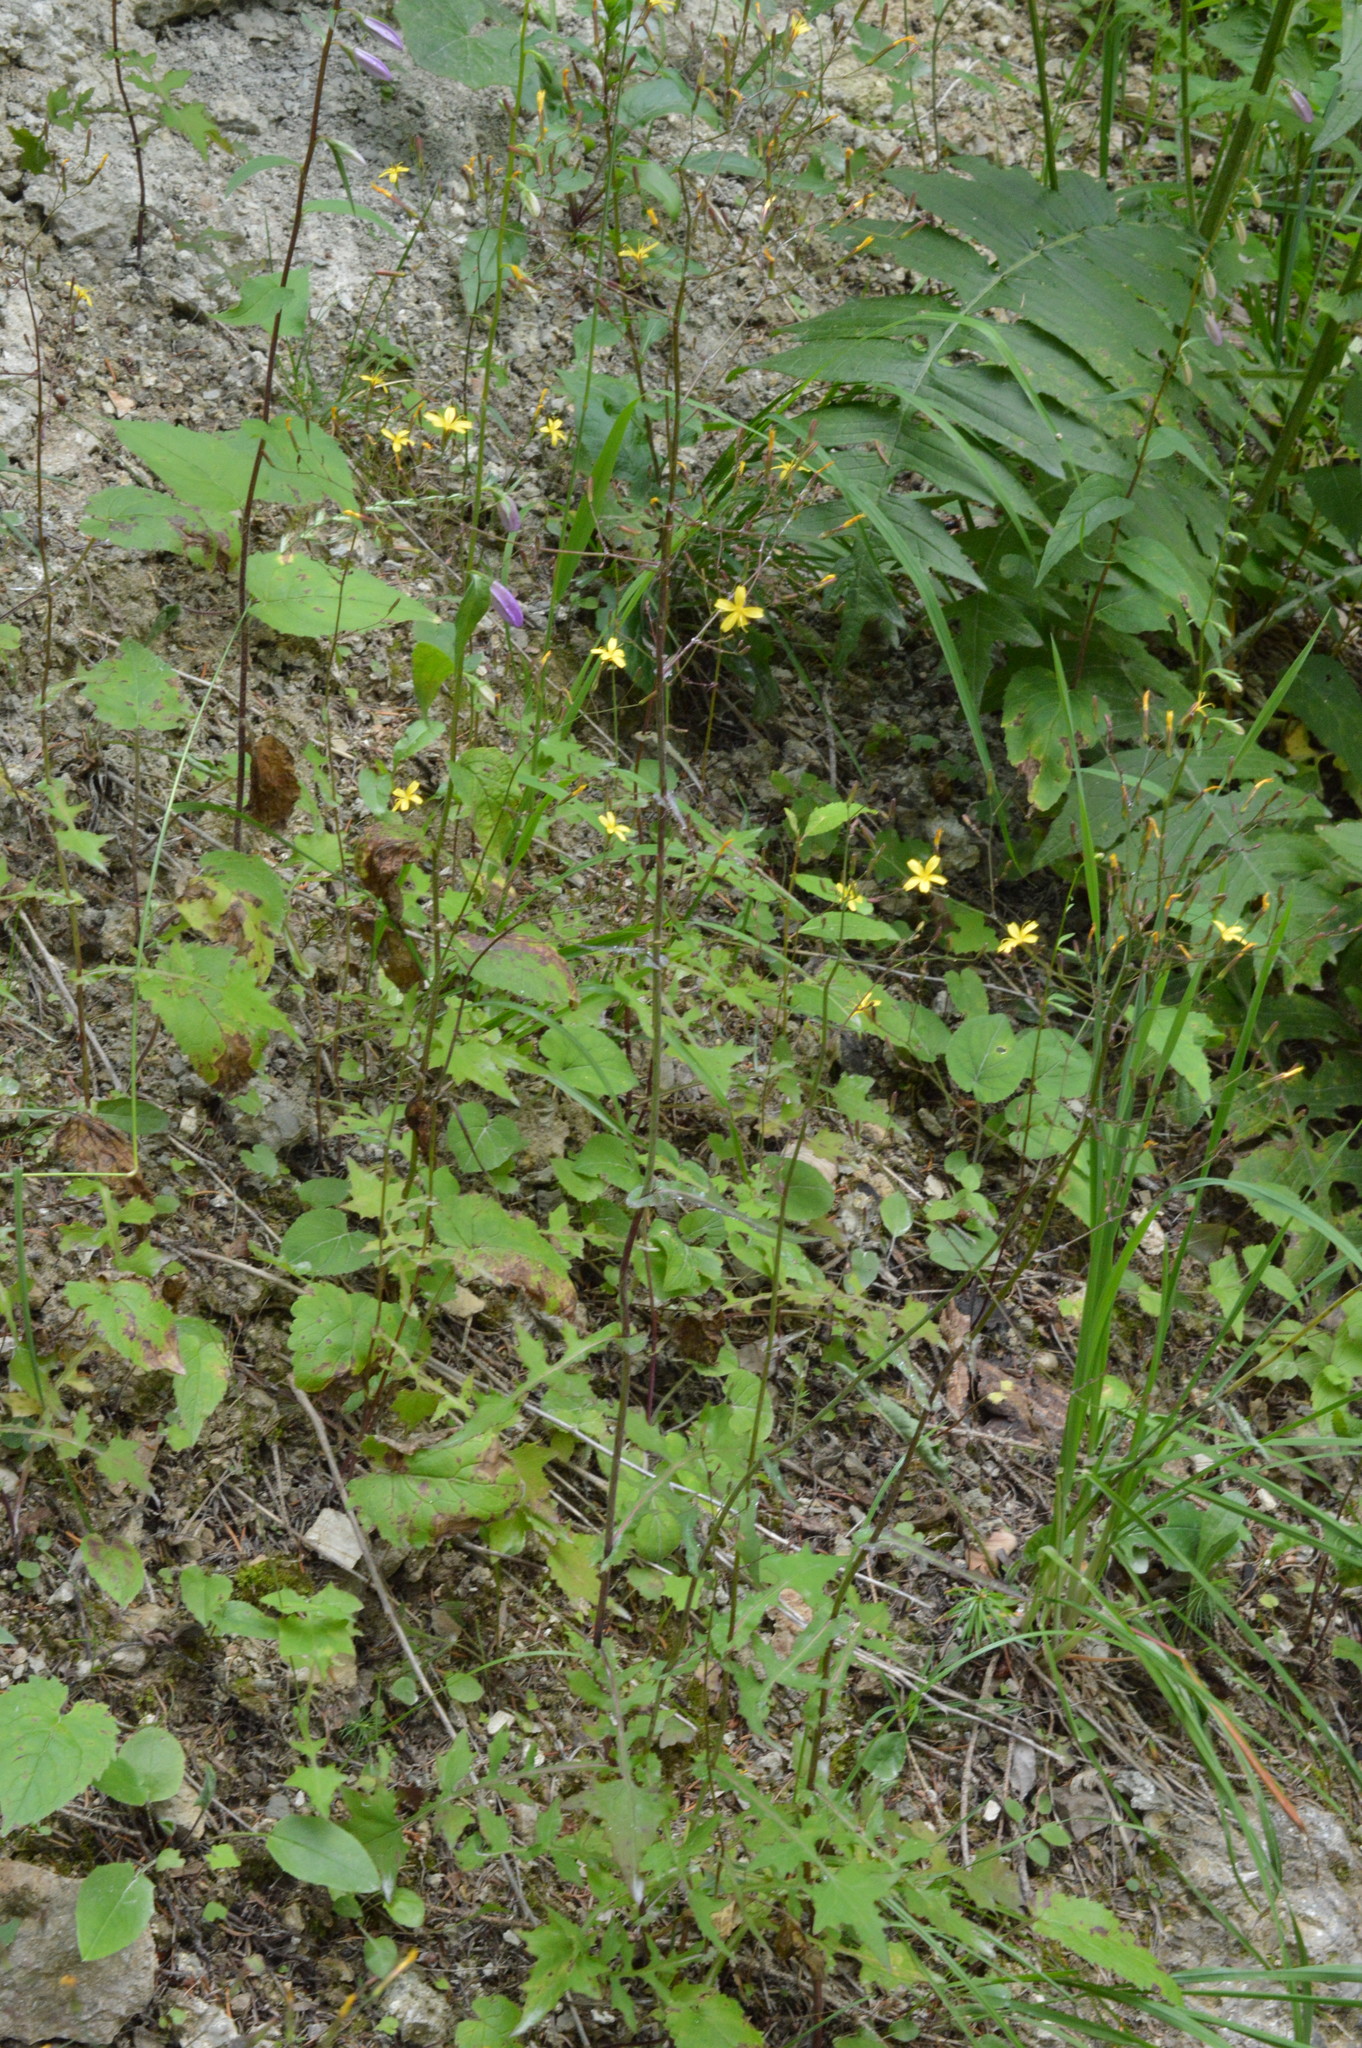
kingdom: Plantae
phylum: Tracheophyta
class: Magnoliopsida
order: Asterales
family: Asteraceae
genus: Mycelis
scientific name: Mycelis muralis
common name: Wall lettuce
